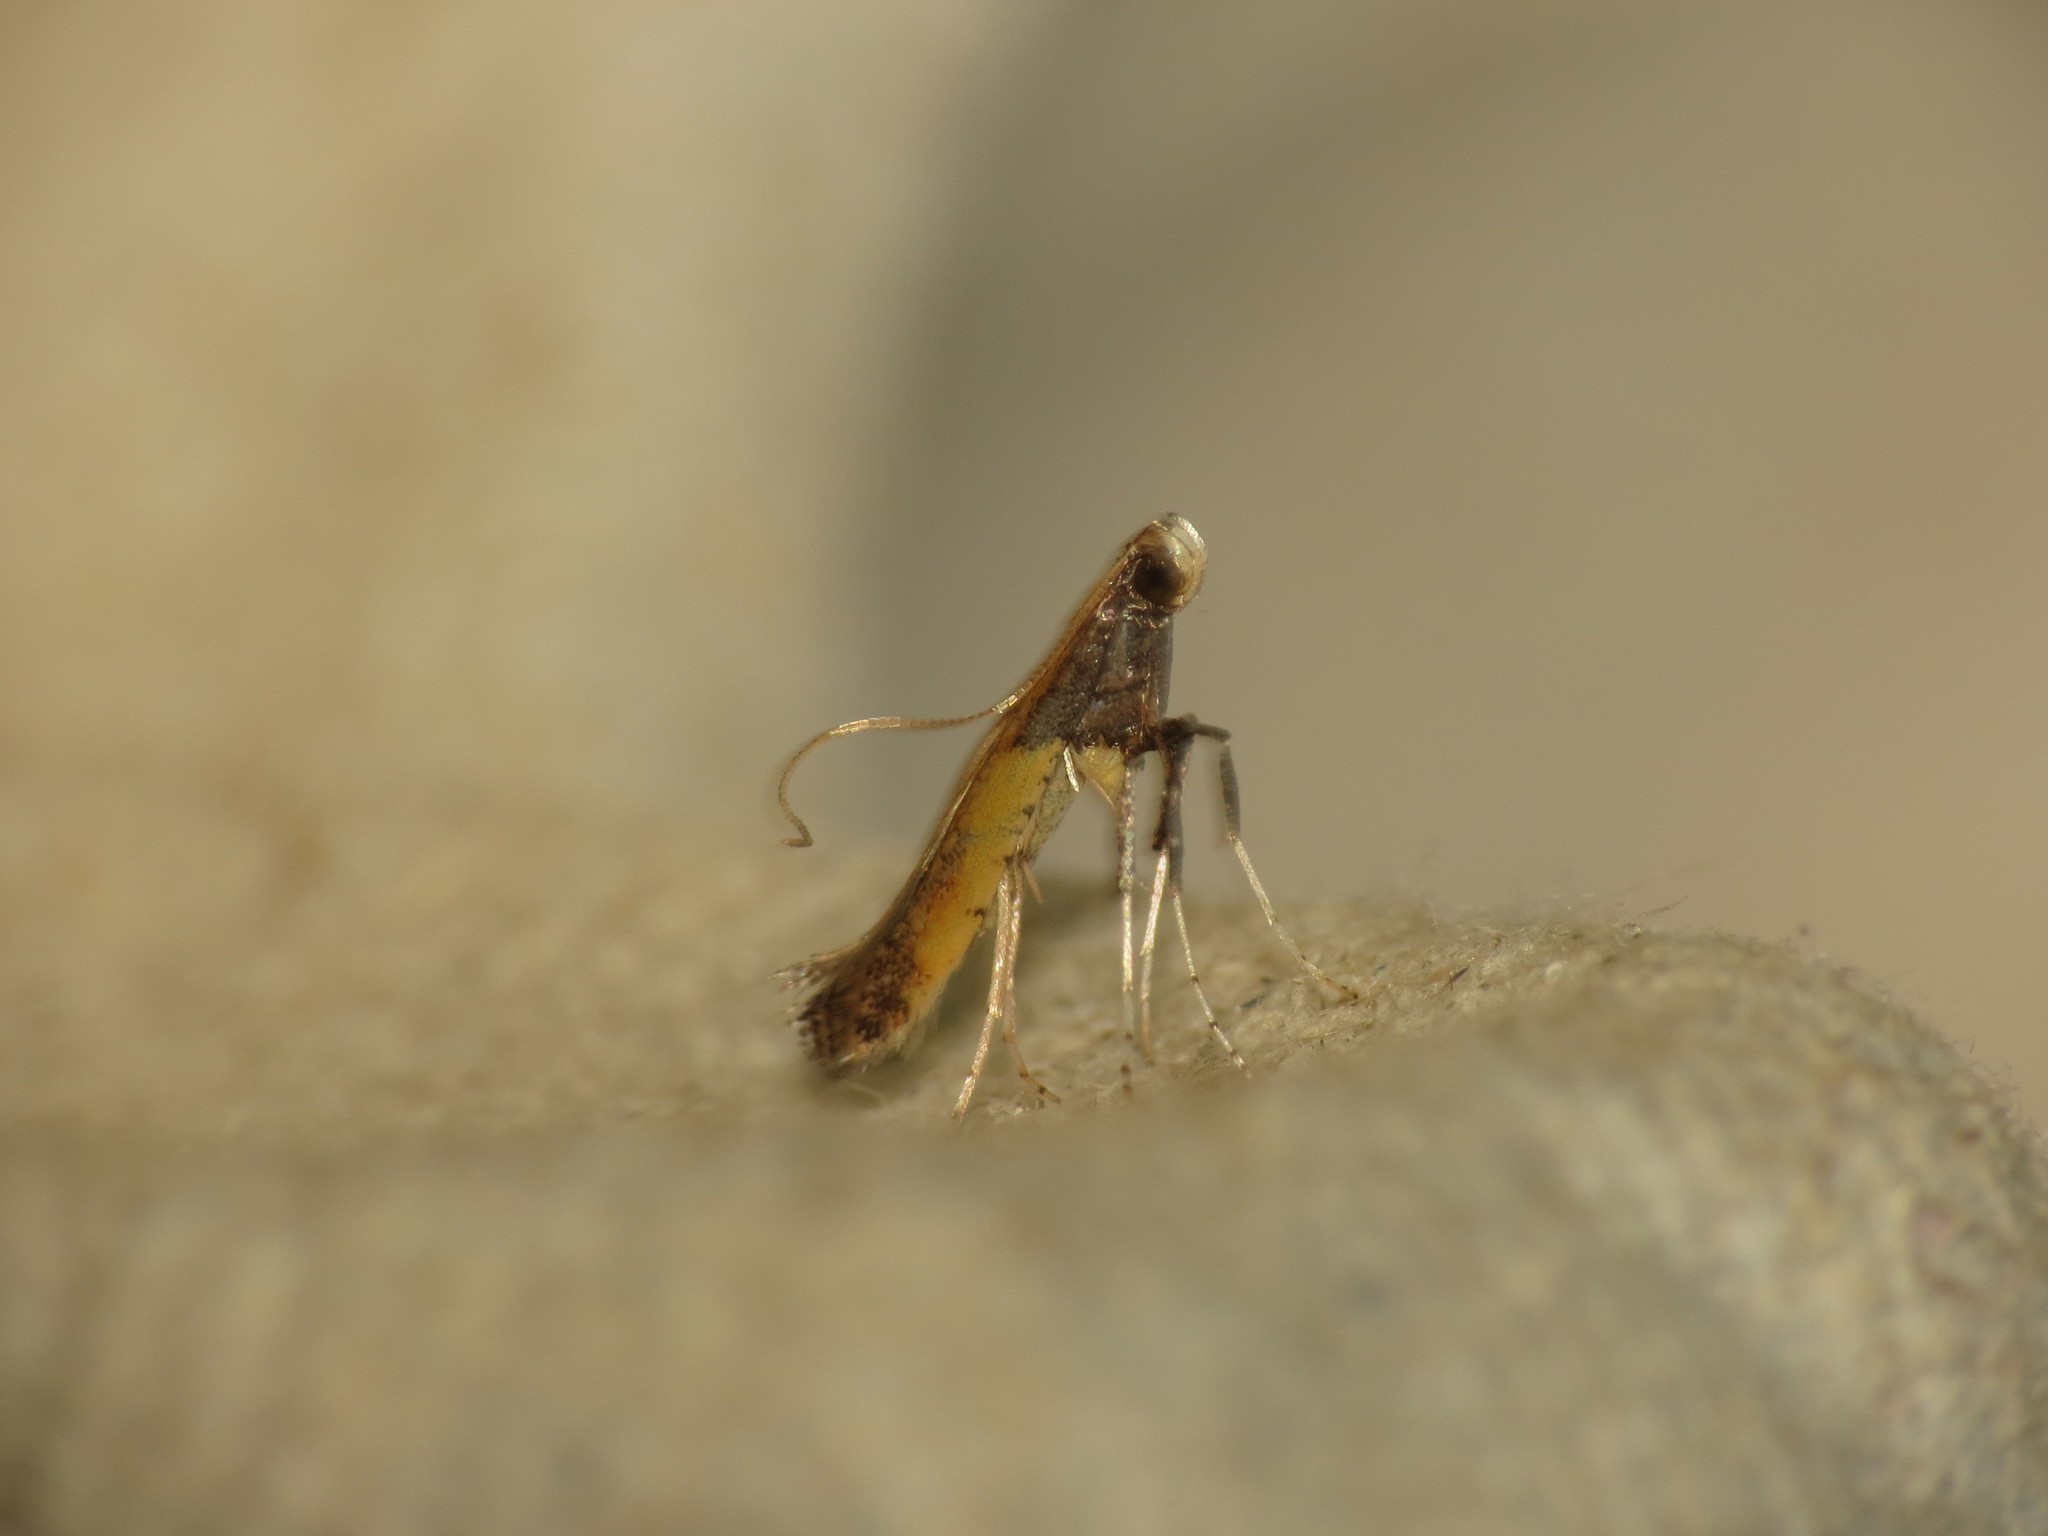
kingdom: Animalia
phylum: Arthropoda
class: Insecta
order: Lepidoptera
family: Gracillariidae
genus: Caloptilia
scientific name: Caloptilia azaleella
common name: Azalea leafminer
